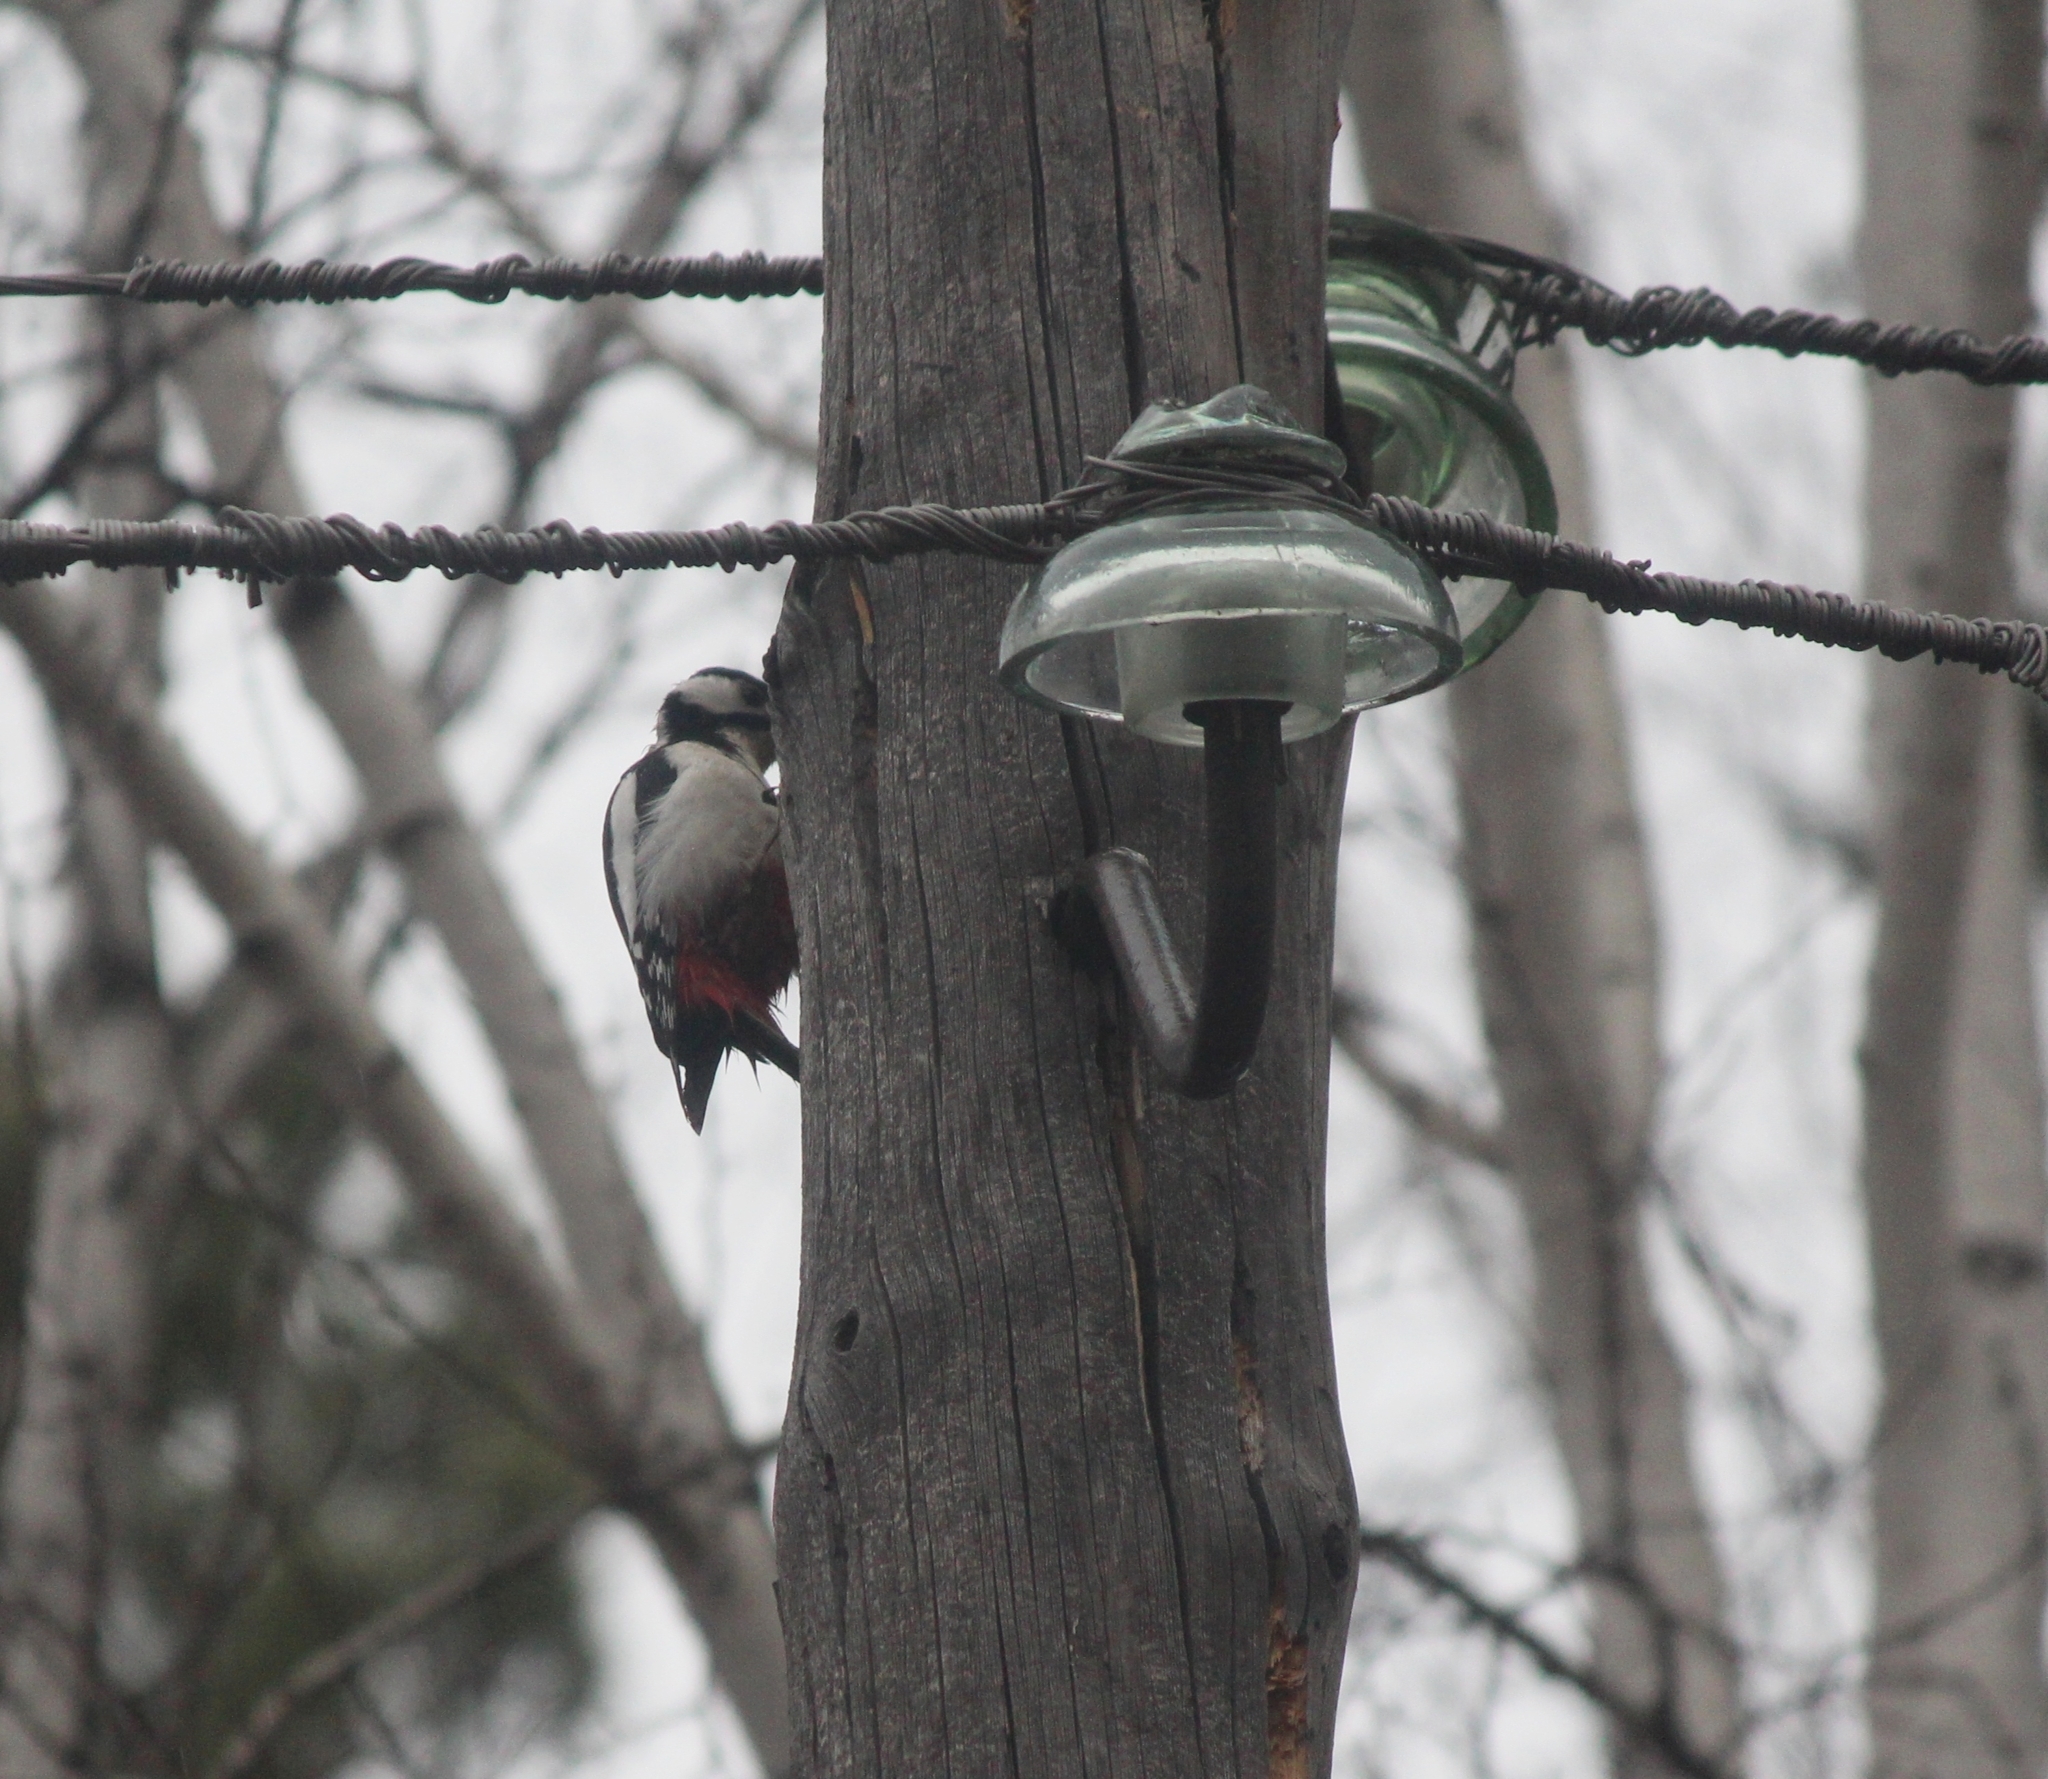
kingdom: Animalia
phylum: Chordata
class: Aves
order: Piciformes
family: Picidae
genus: Dendrocopos
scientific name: Dendrocopos major
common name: Great spotted woodpecker
